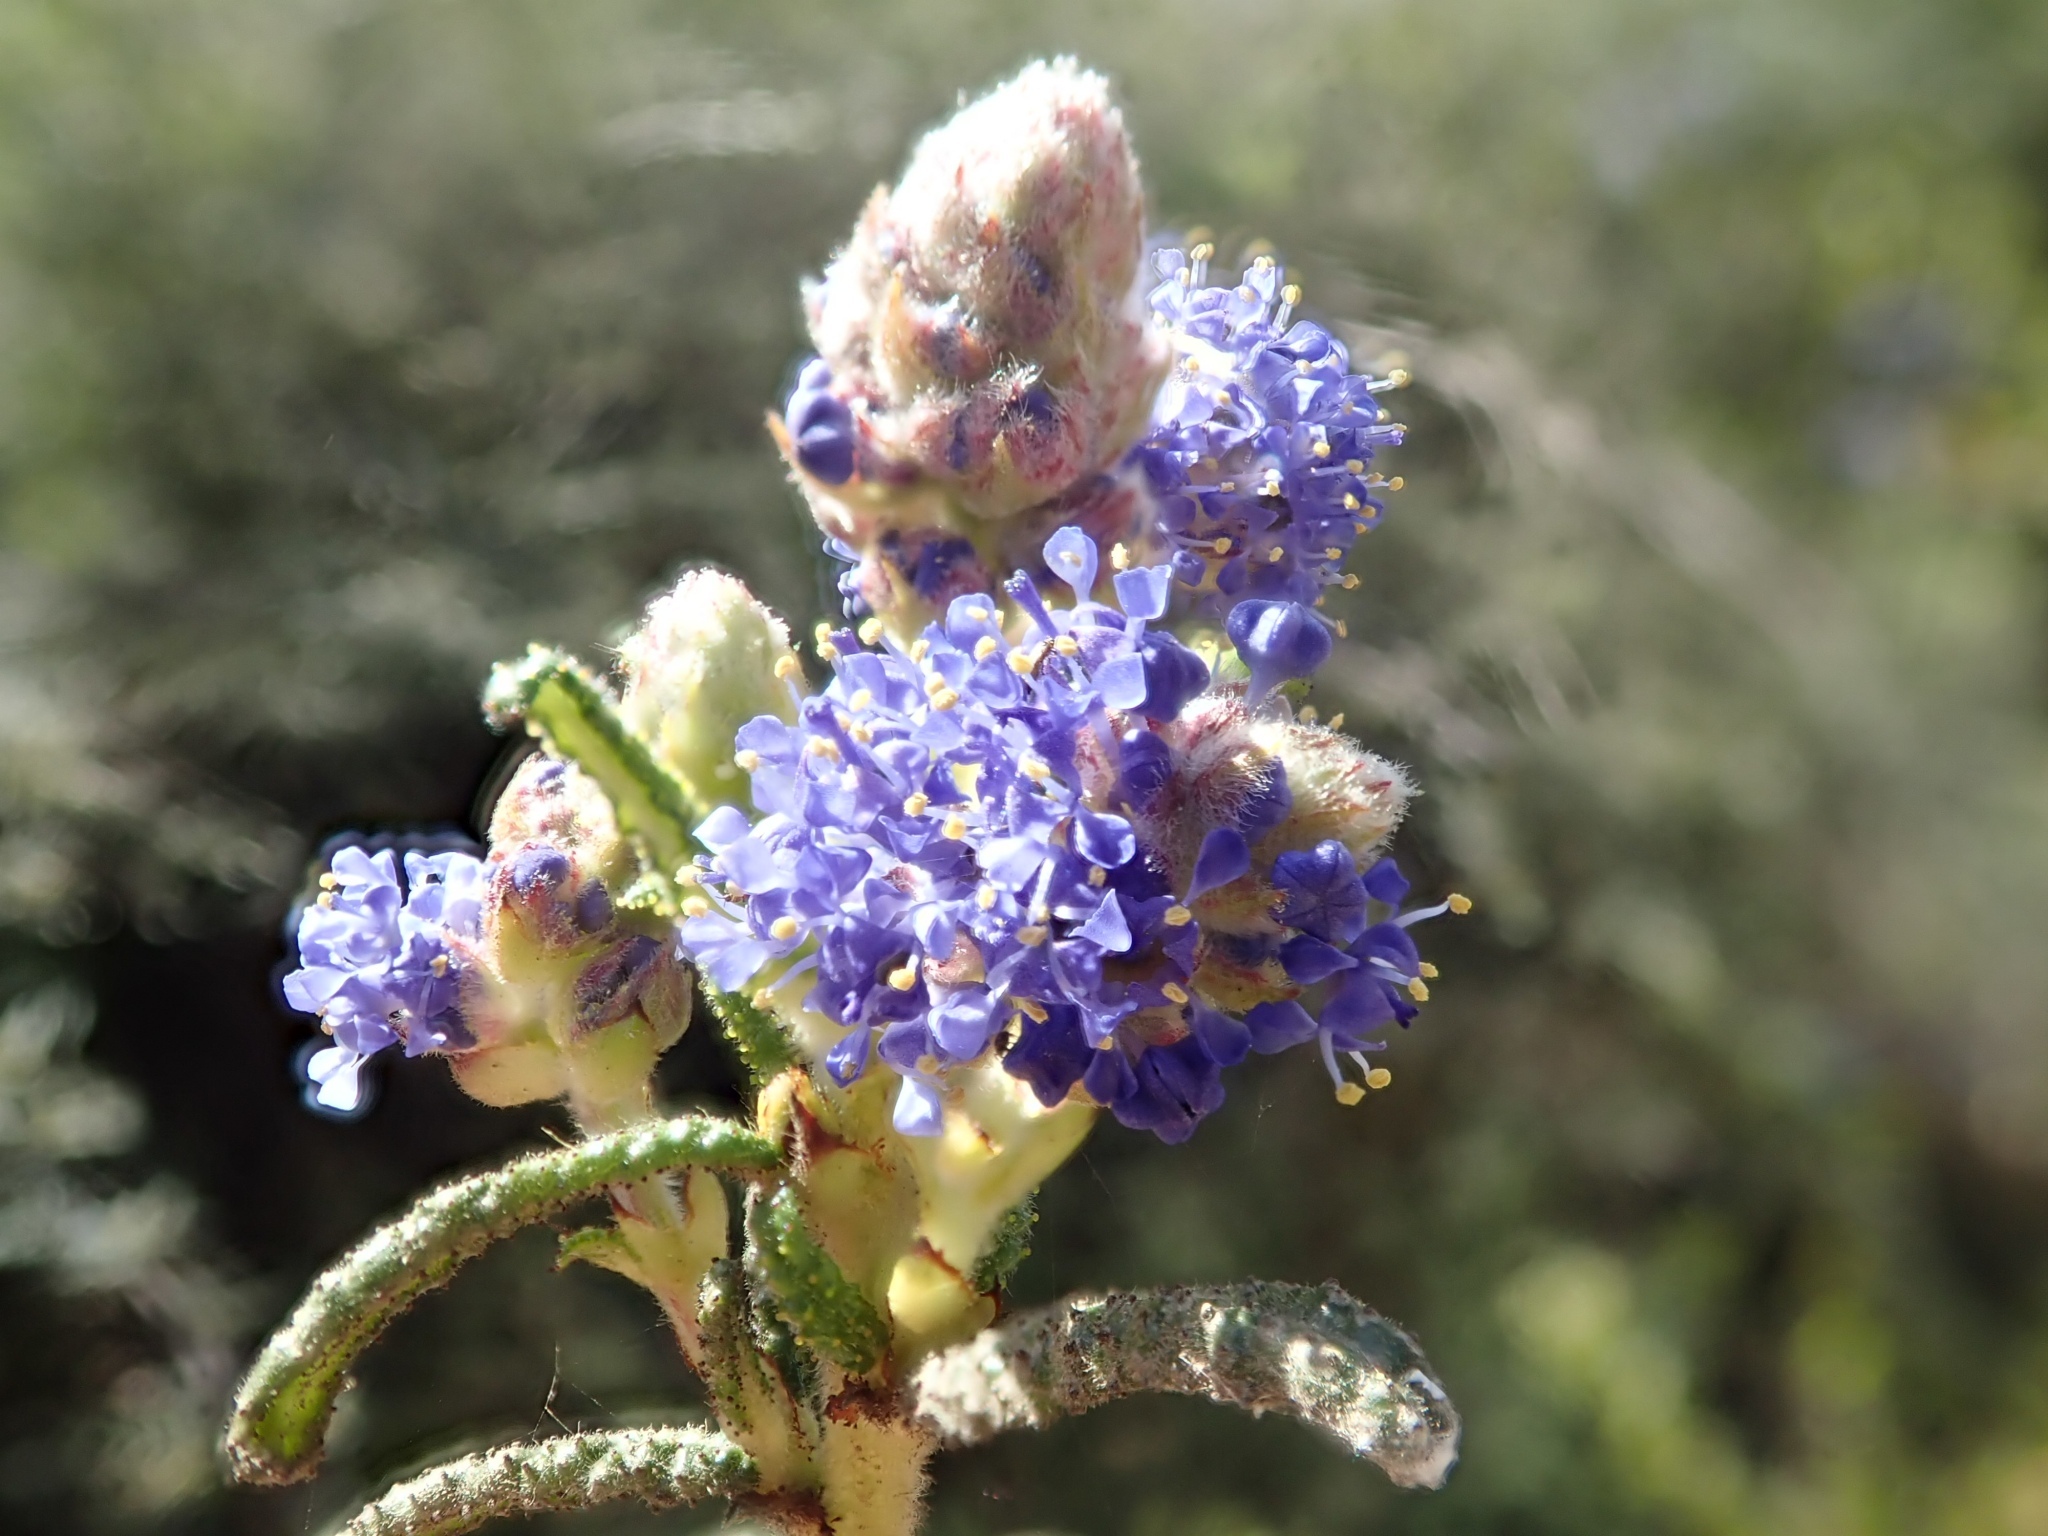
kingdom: Plantae
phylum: Tracheophyta
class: Magnoliopsida
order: Rosales
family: Rhamnaceae
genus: Ceanothus
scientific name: Ceanothus papillosus
